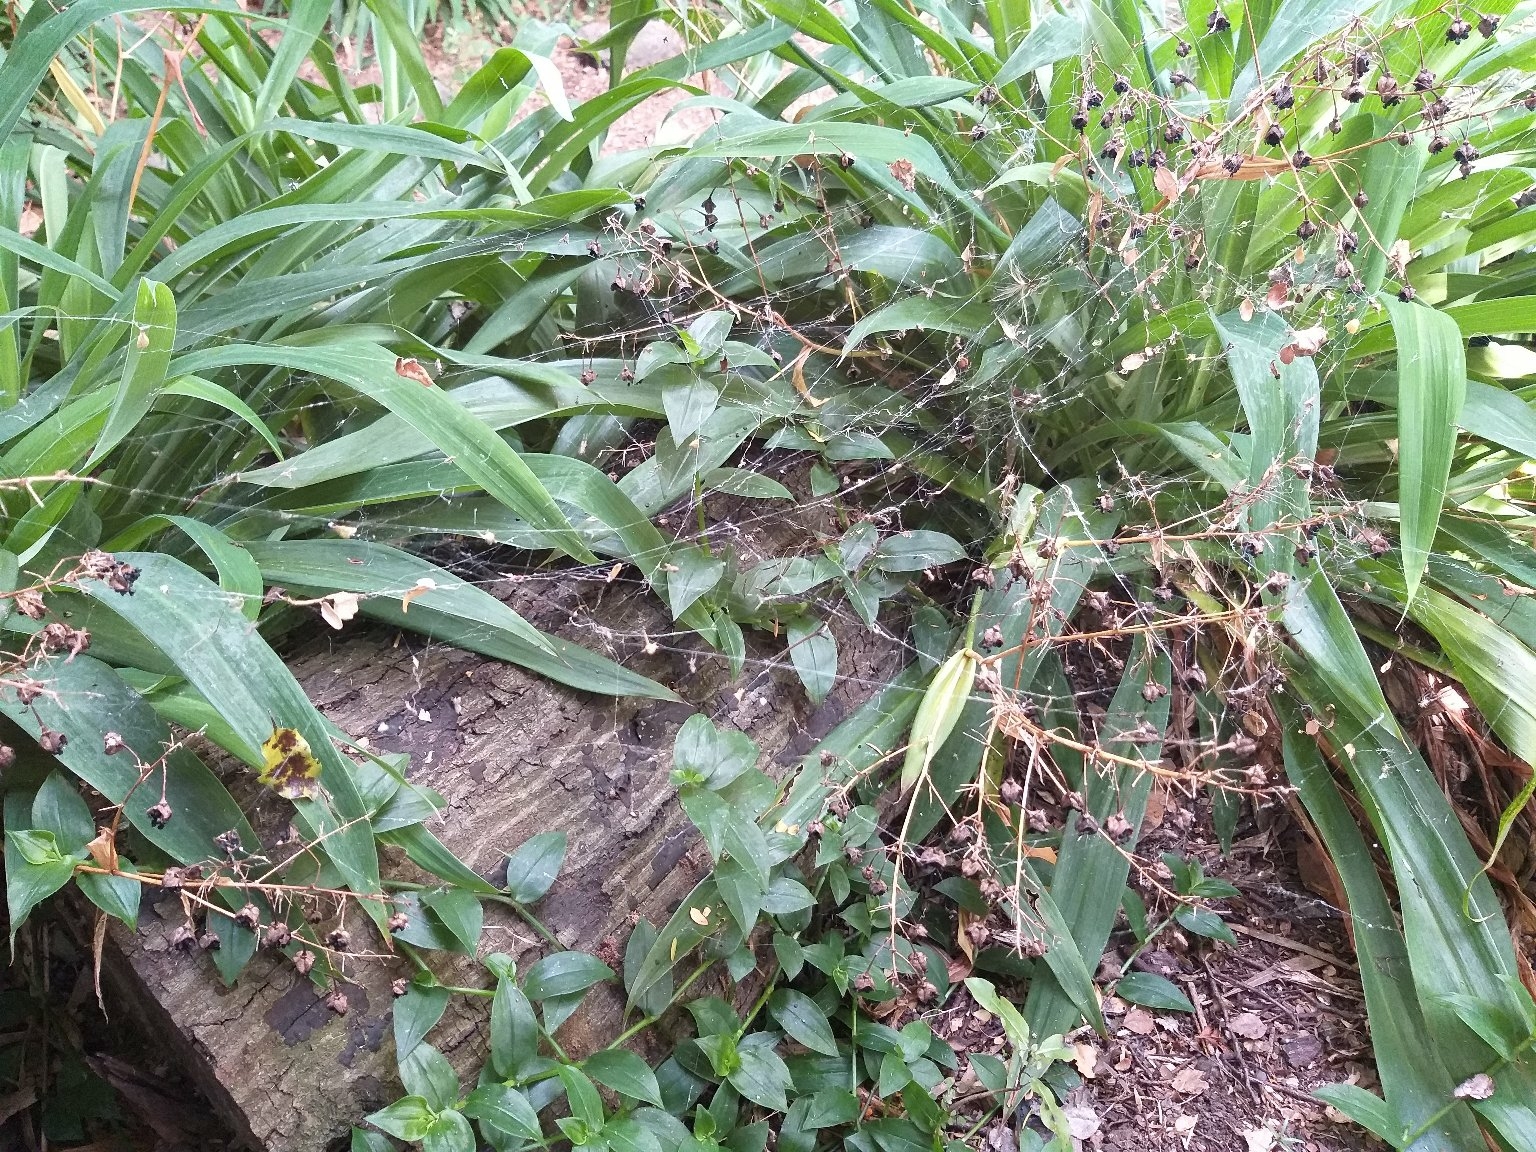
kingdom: Animalia
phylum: Arthropoda
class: Arachnida
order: Araneae
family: Uloboridae
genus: Philoponella
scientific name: Philoponella congregabilis
